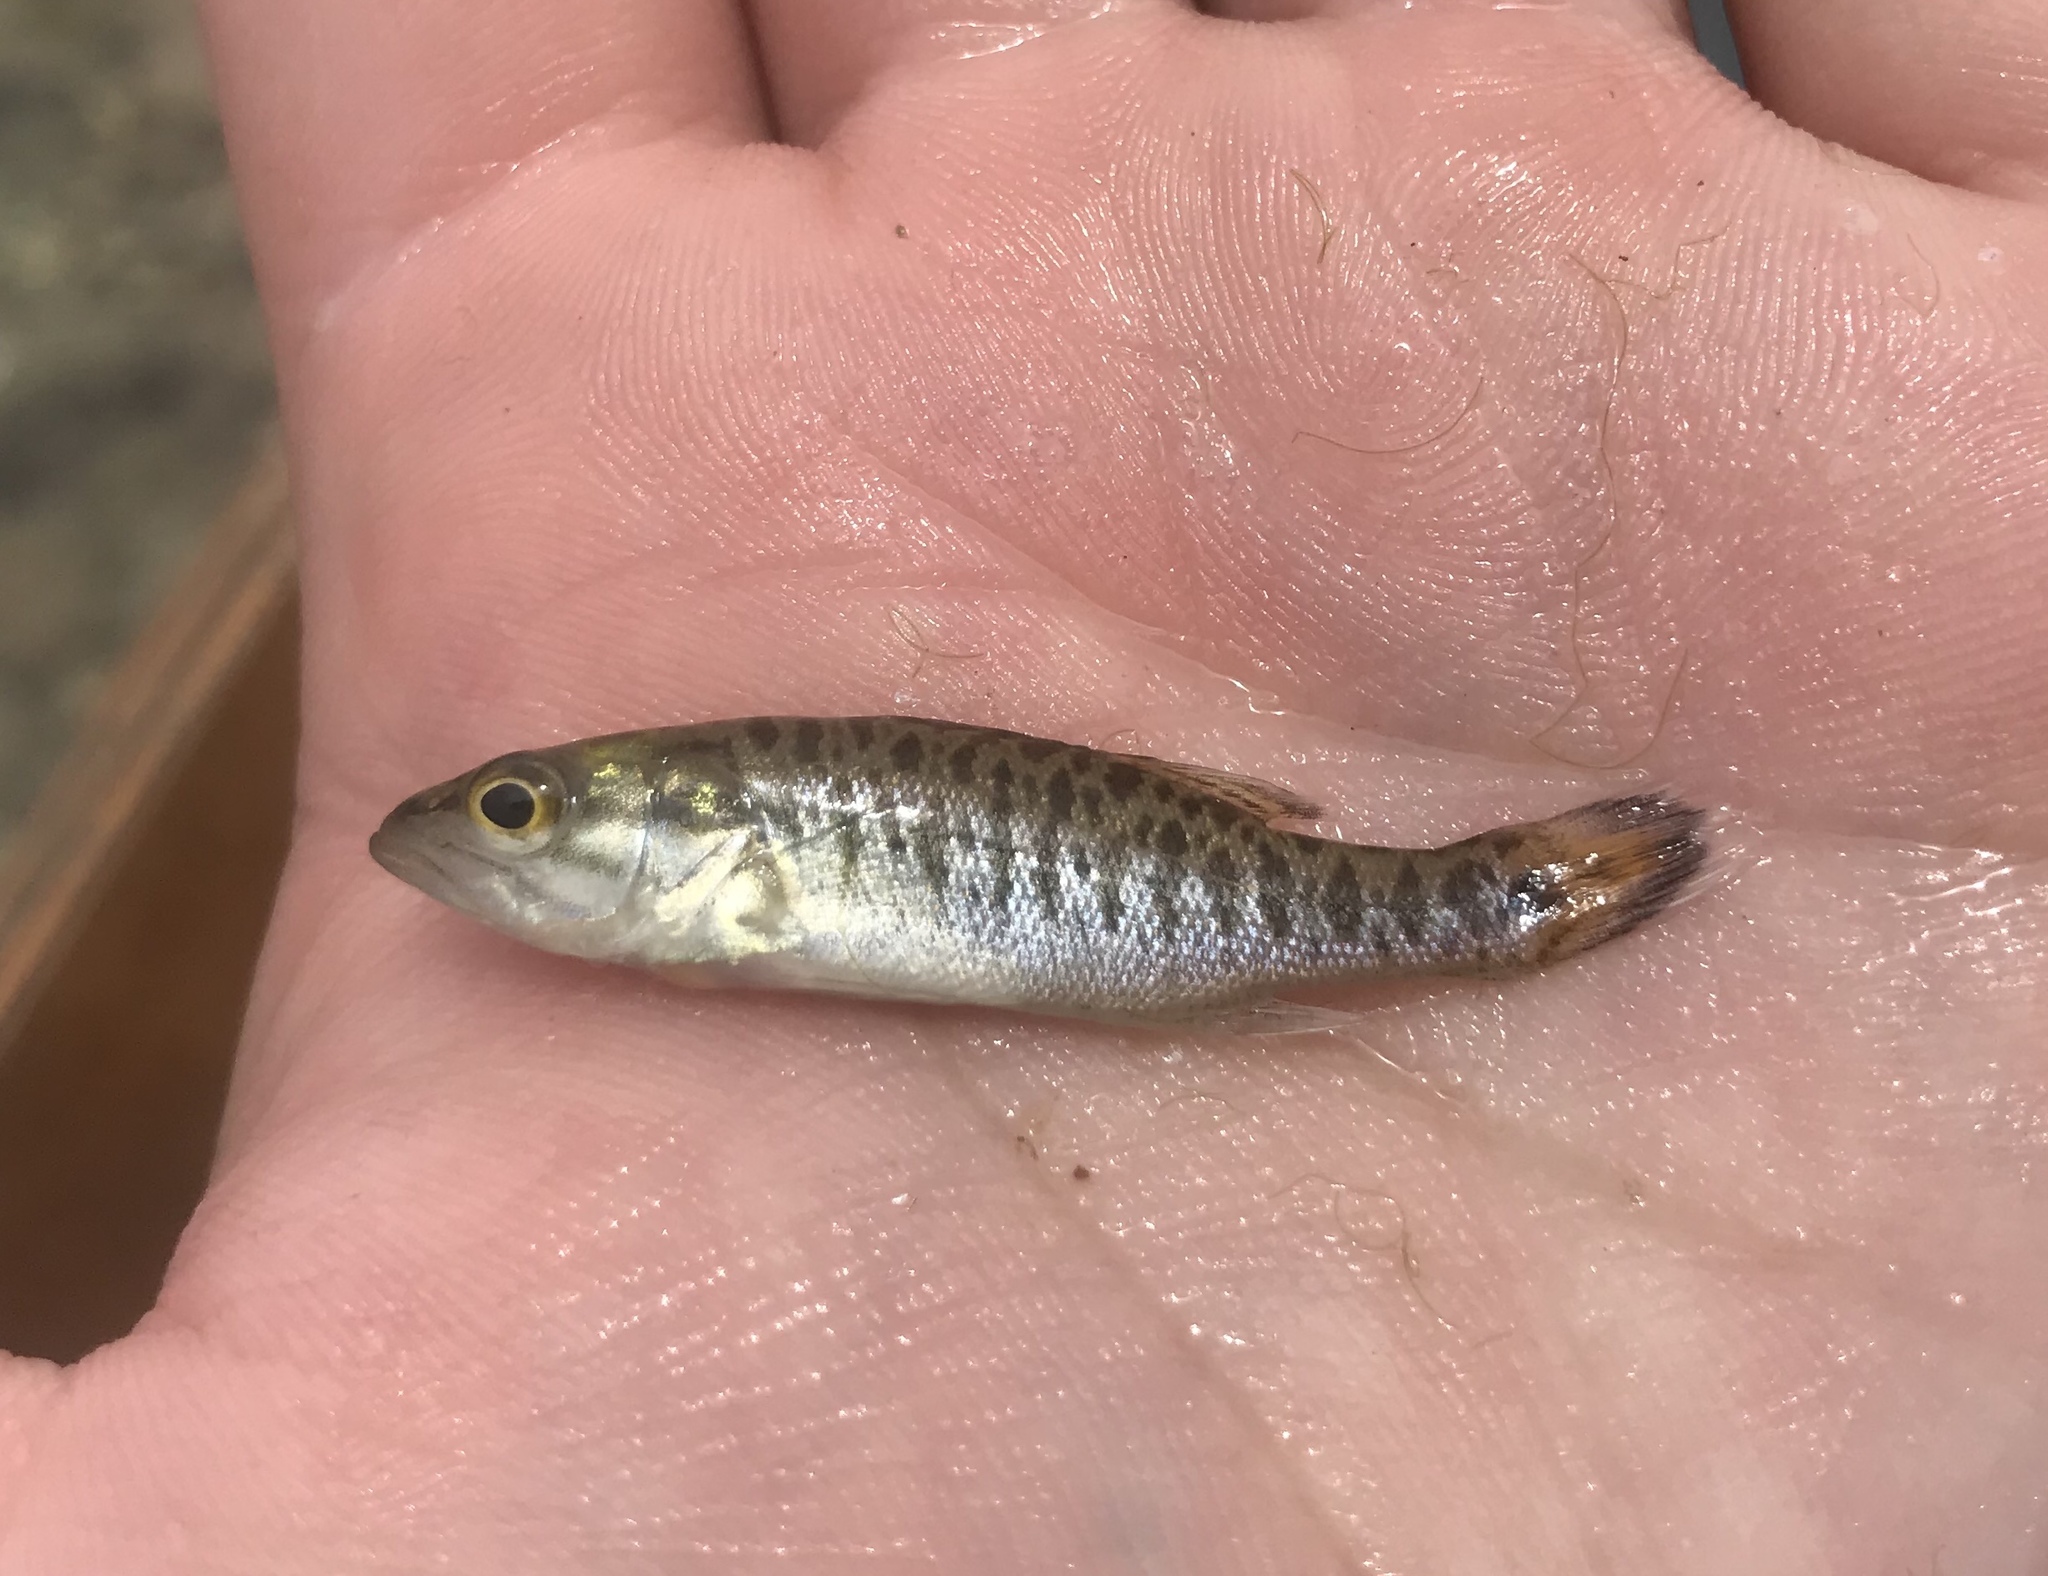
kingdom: Animalia
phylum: Chordata
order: Perciformes
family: Centrarchidae
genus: Micropterus
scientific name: Micropterus treculii
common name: Guadalupe bass
